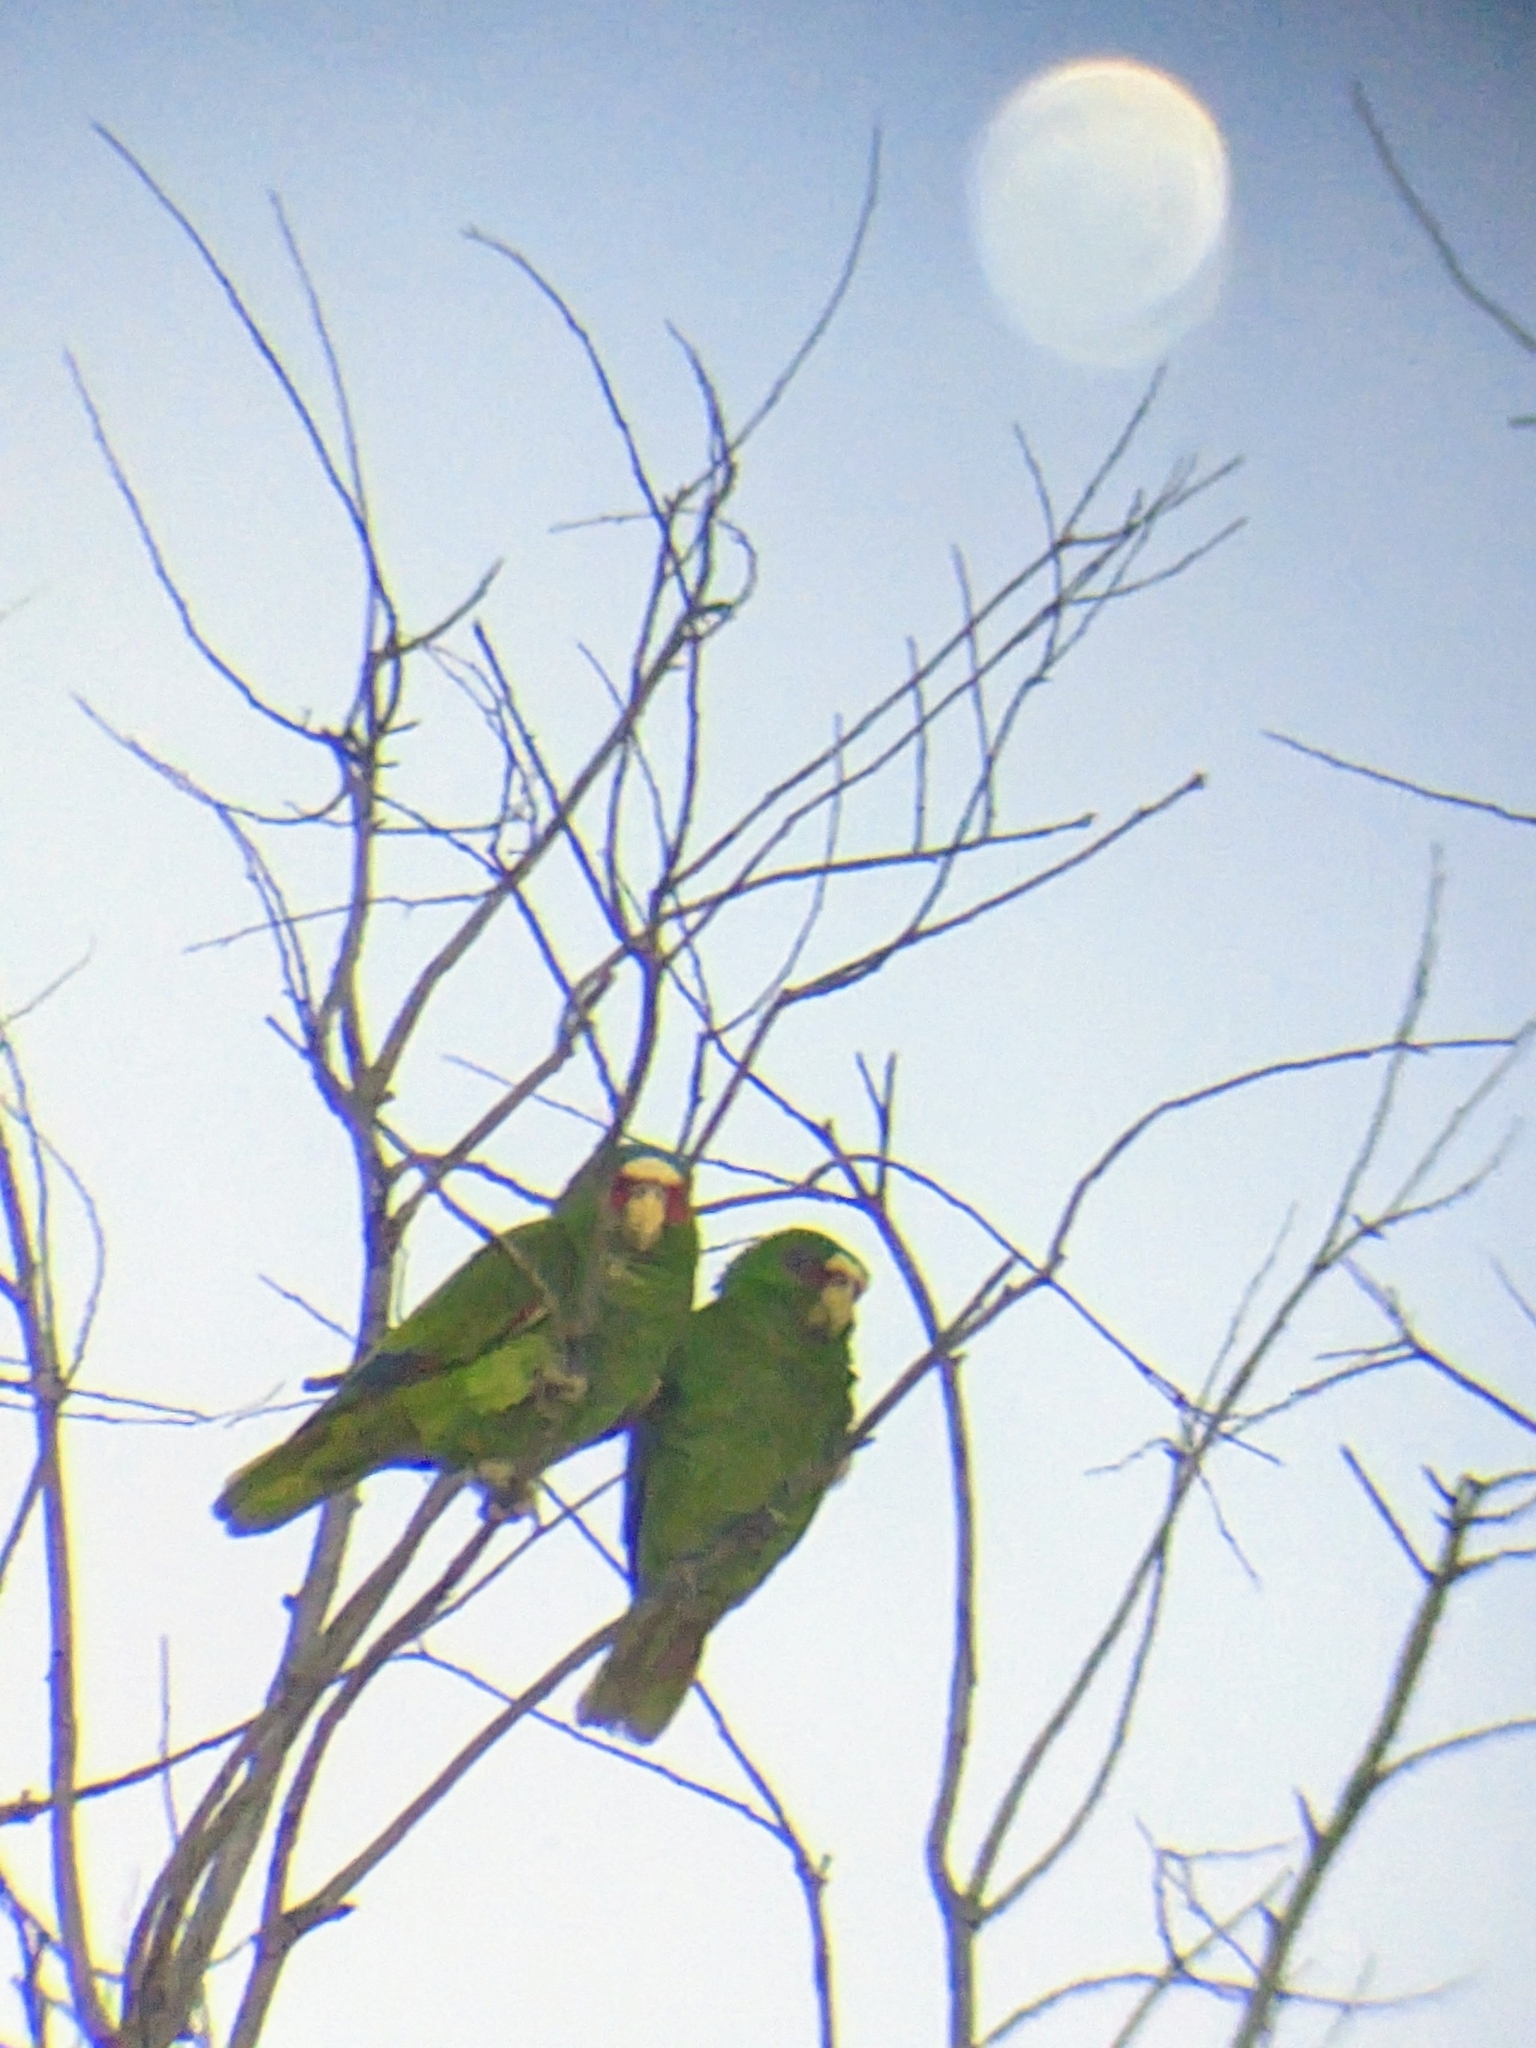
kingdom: Animalia
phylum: Chordata
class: Aves
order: Psittaciformes
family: Psittacidae
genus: Amazona
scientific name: Amazona albifrons
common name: White-fronted amazon
